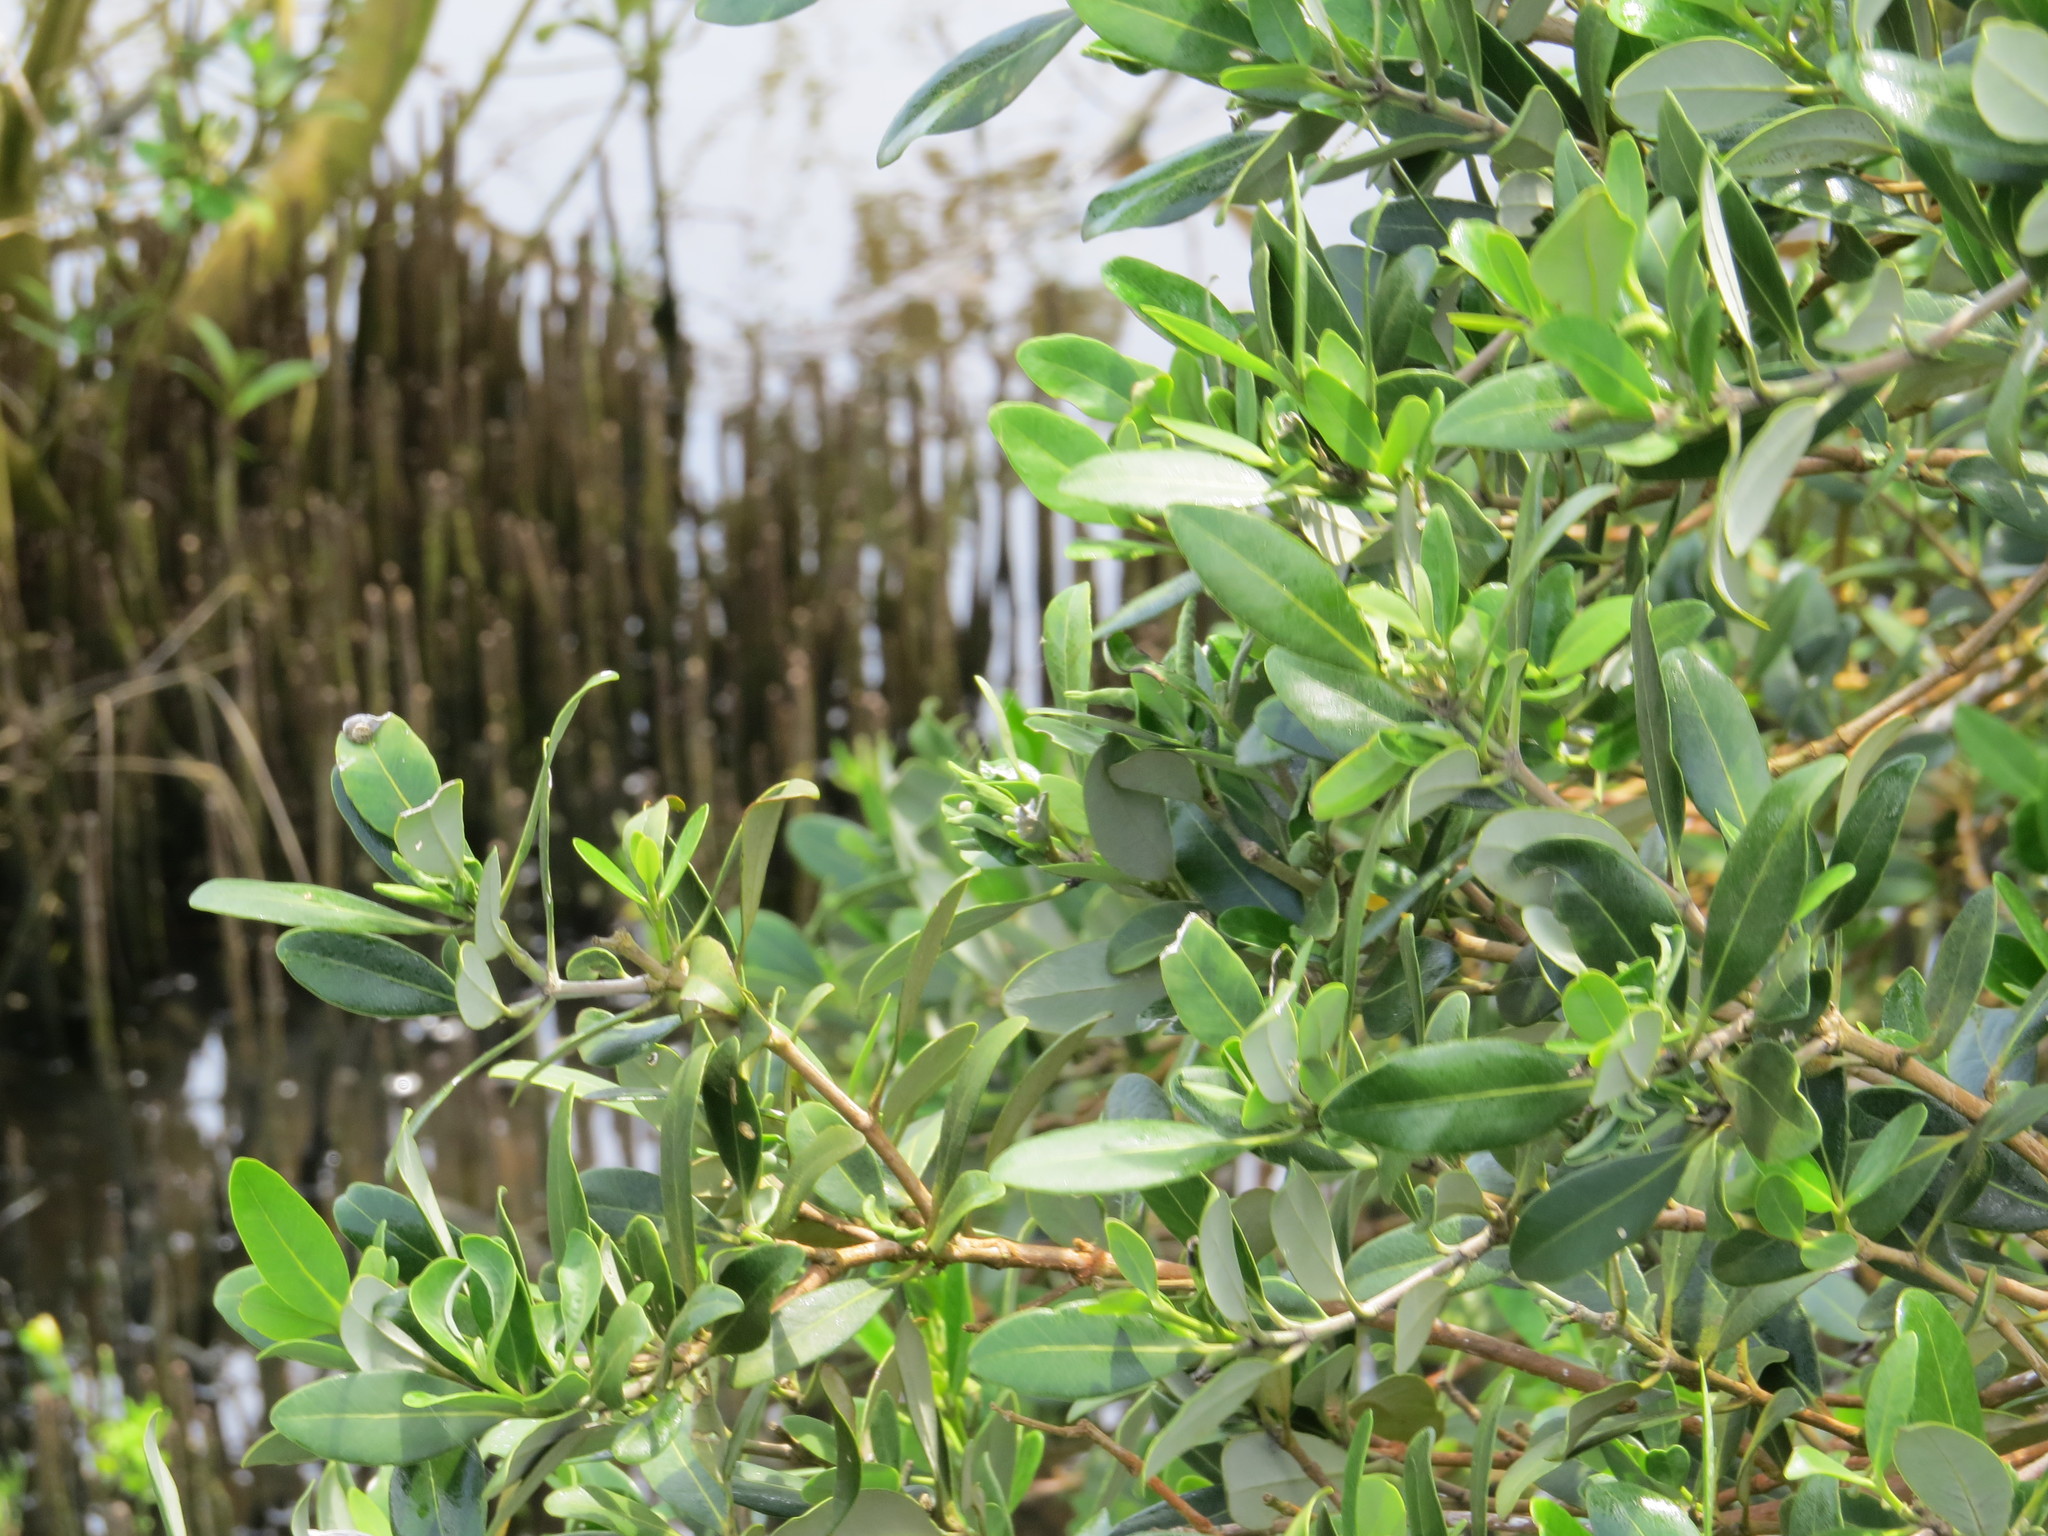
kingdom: Plantae
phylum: Tracheophyta
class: Magnoliopsida
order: Lamiales
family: Acanthaceae
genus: Avicennia
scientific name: Avicennia germinans
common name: Black mangrove
